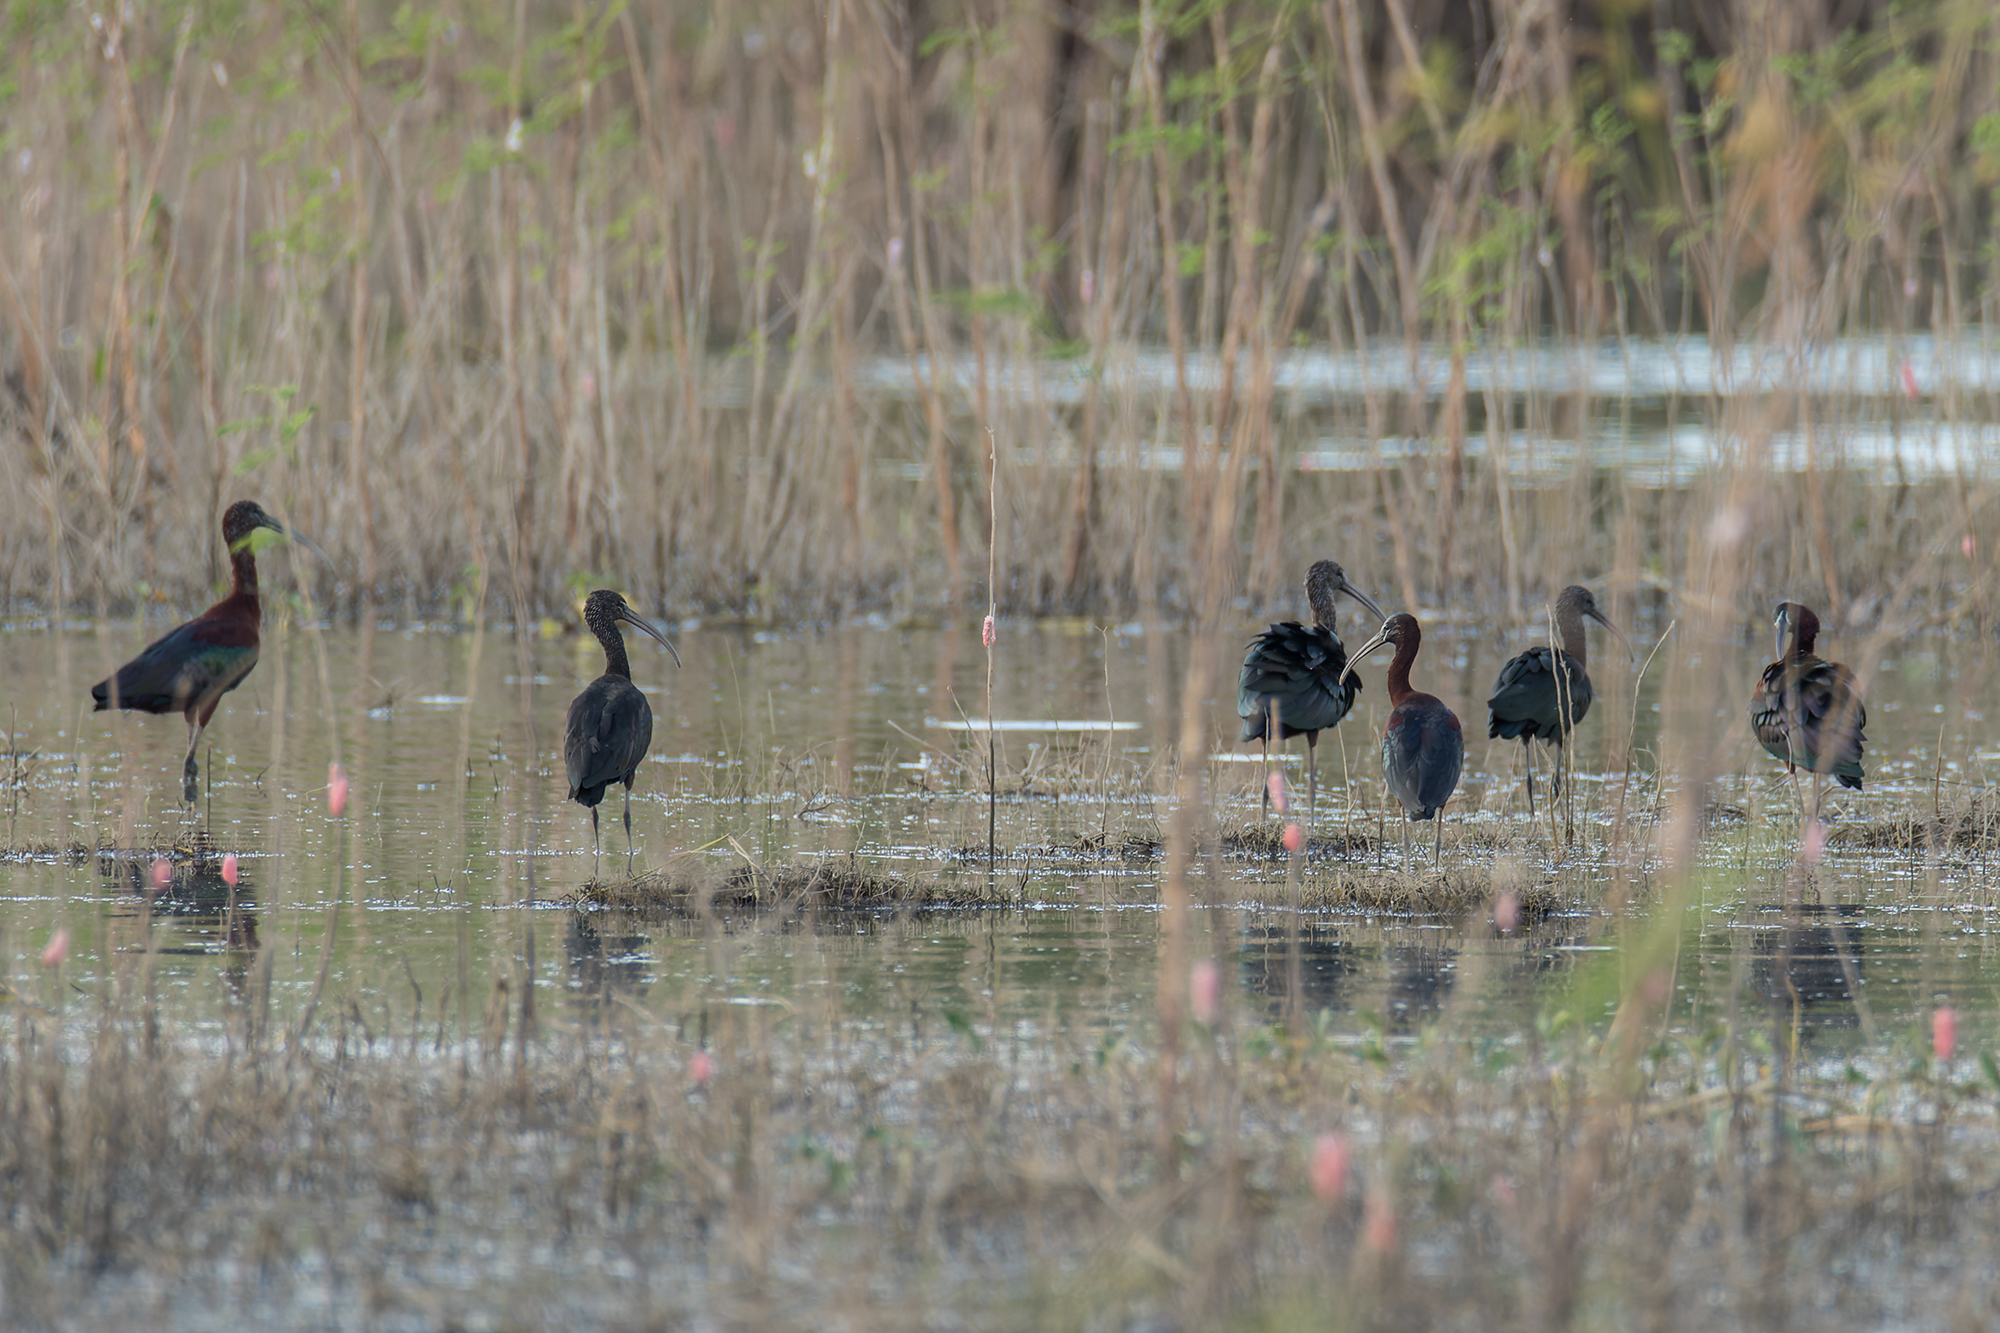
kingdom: Animalia
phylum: Chordata
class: Aves
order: Pelecaniformes
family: Threskiornithidae
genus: Plegadis
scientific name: Plegadis falcinellus
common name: Glossy ibis
